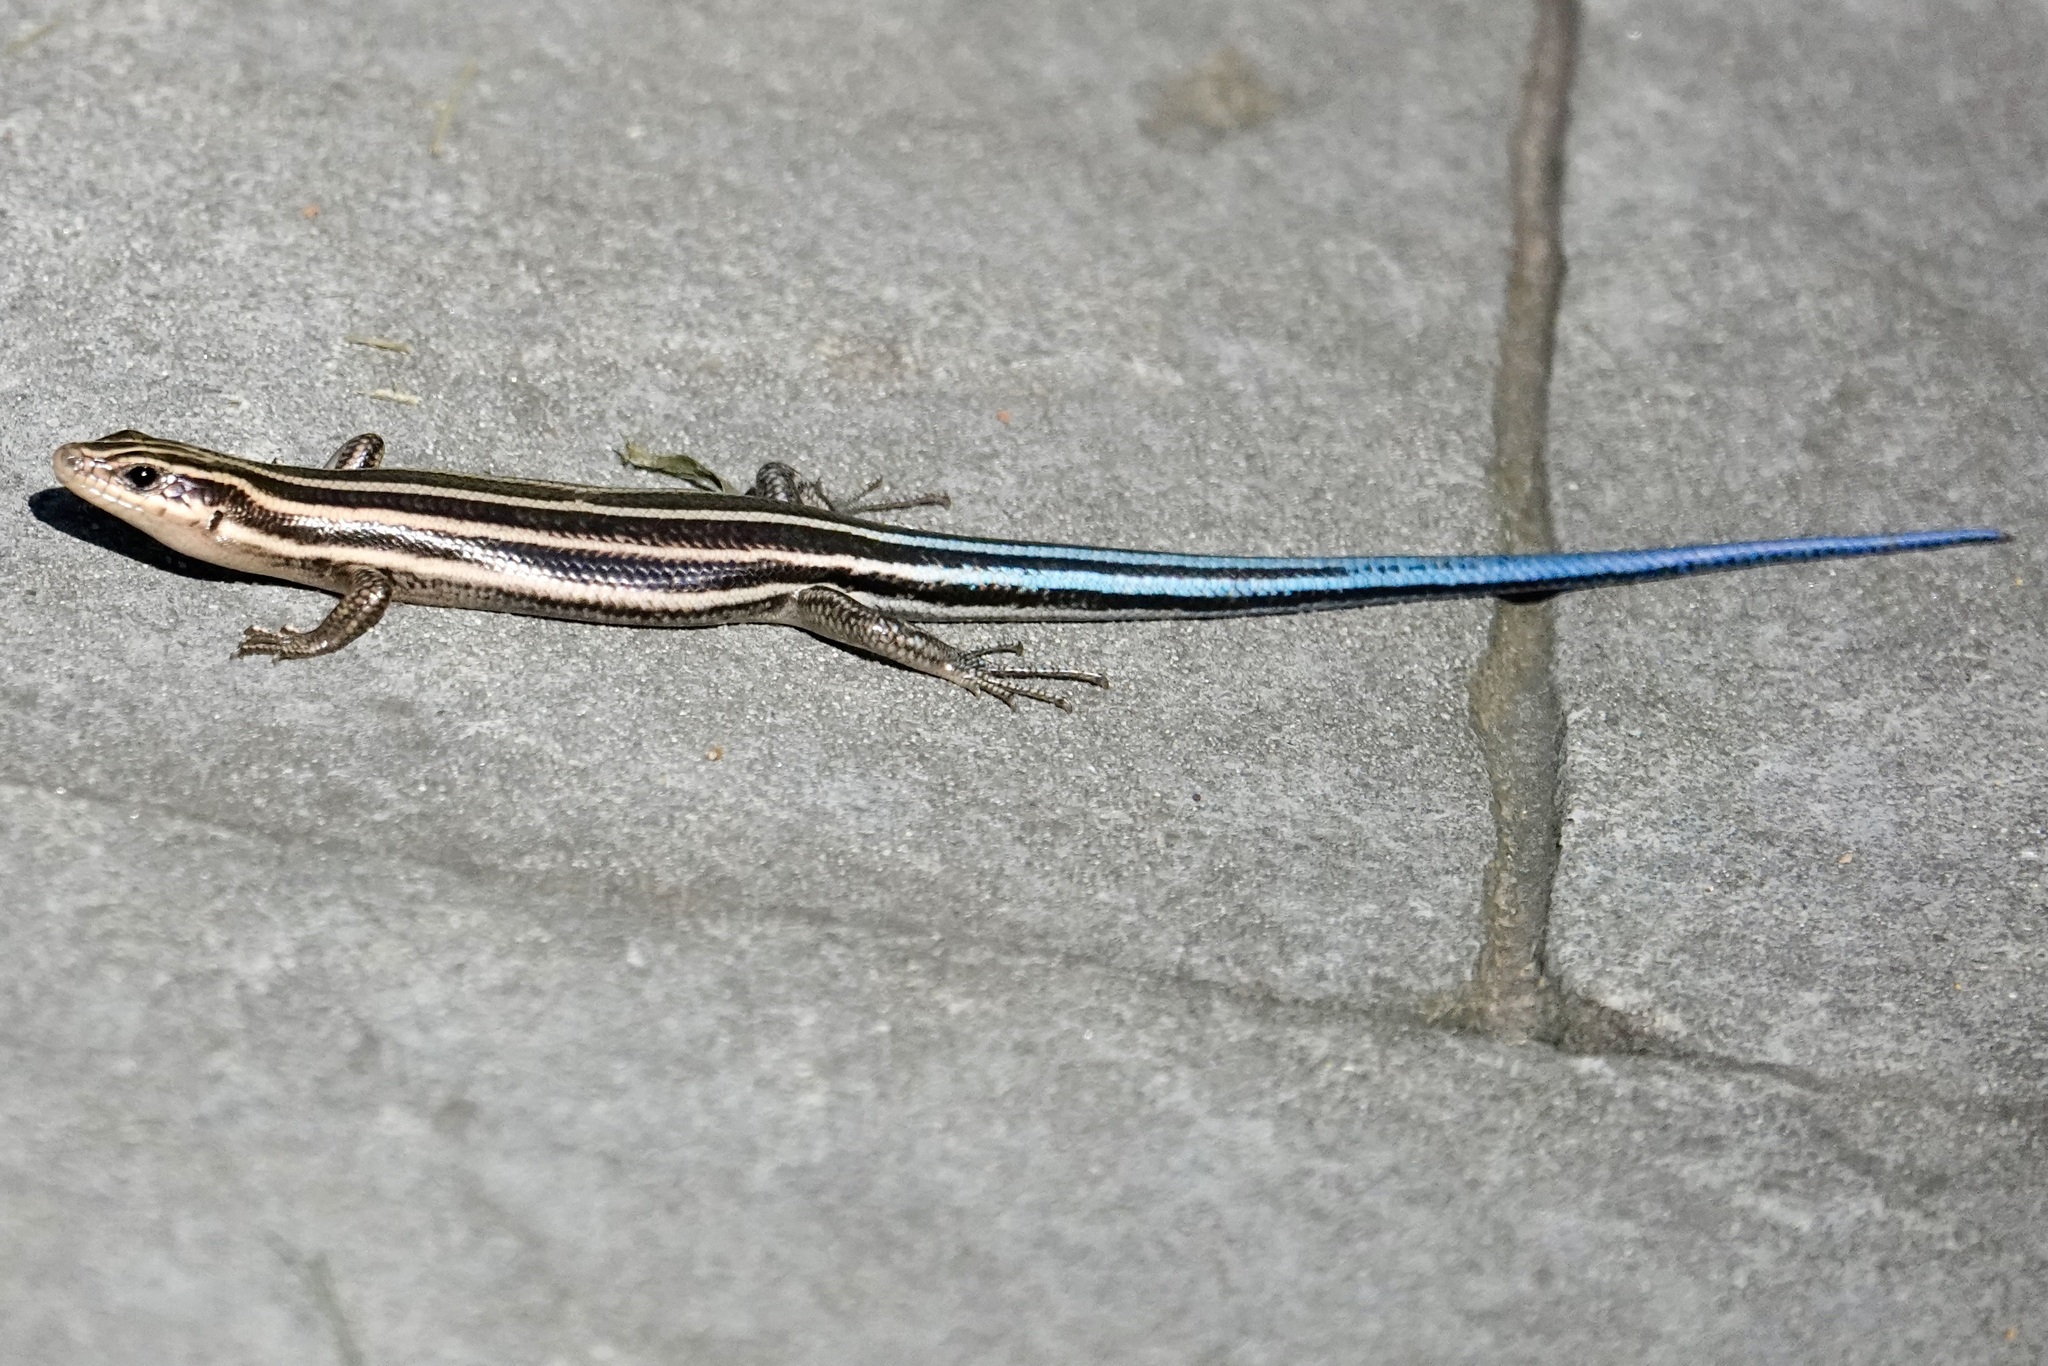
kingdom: Animalia
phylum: Chordata
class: Squamata
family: Scincidae
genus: Plestiodon
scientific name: Plestiodon fasciatus
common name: Five-lined skink
